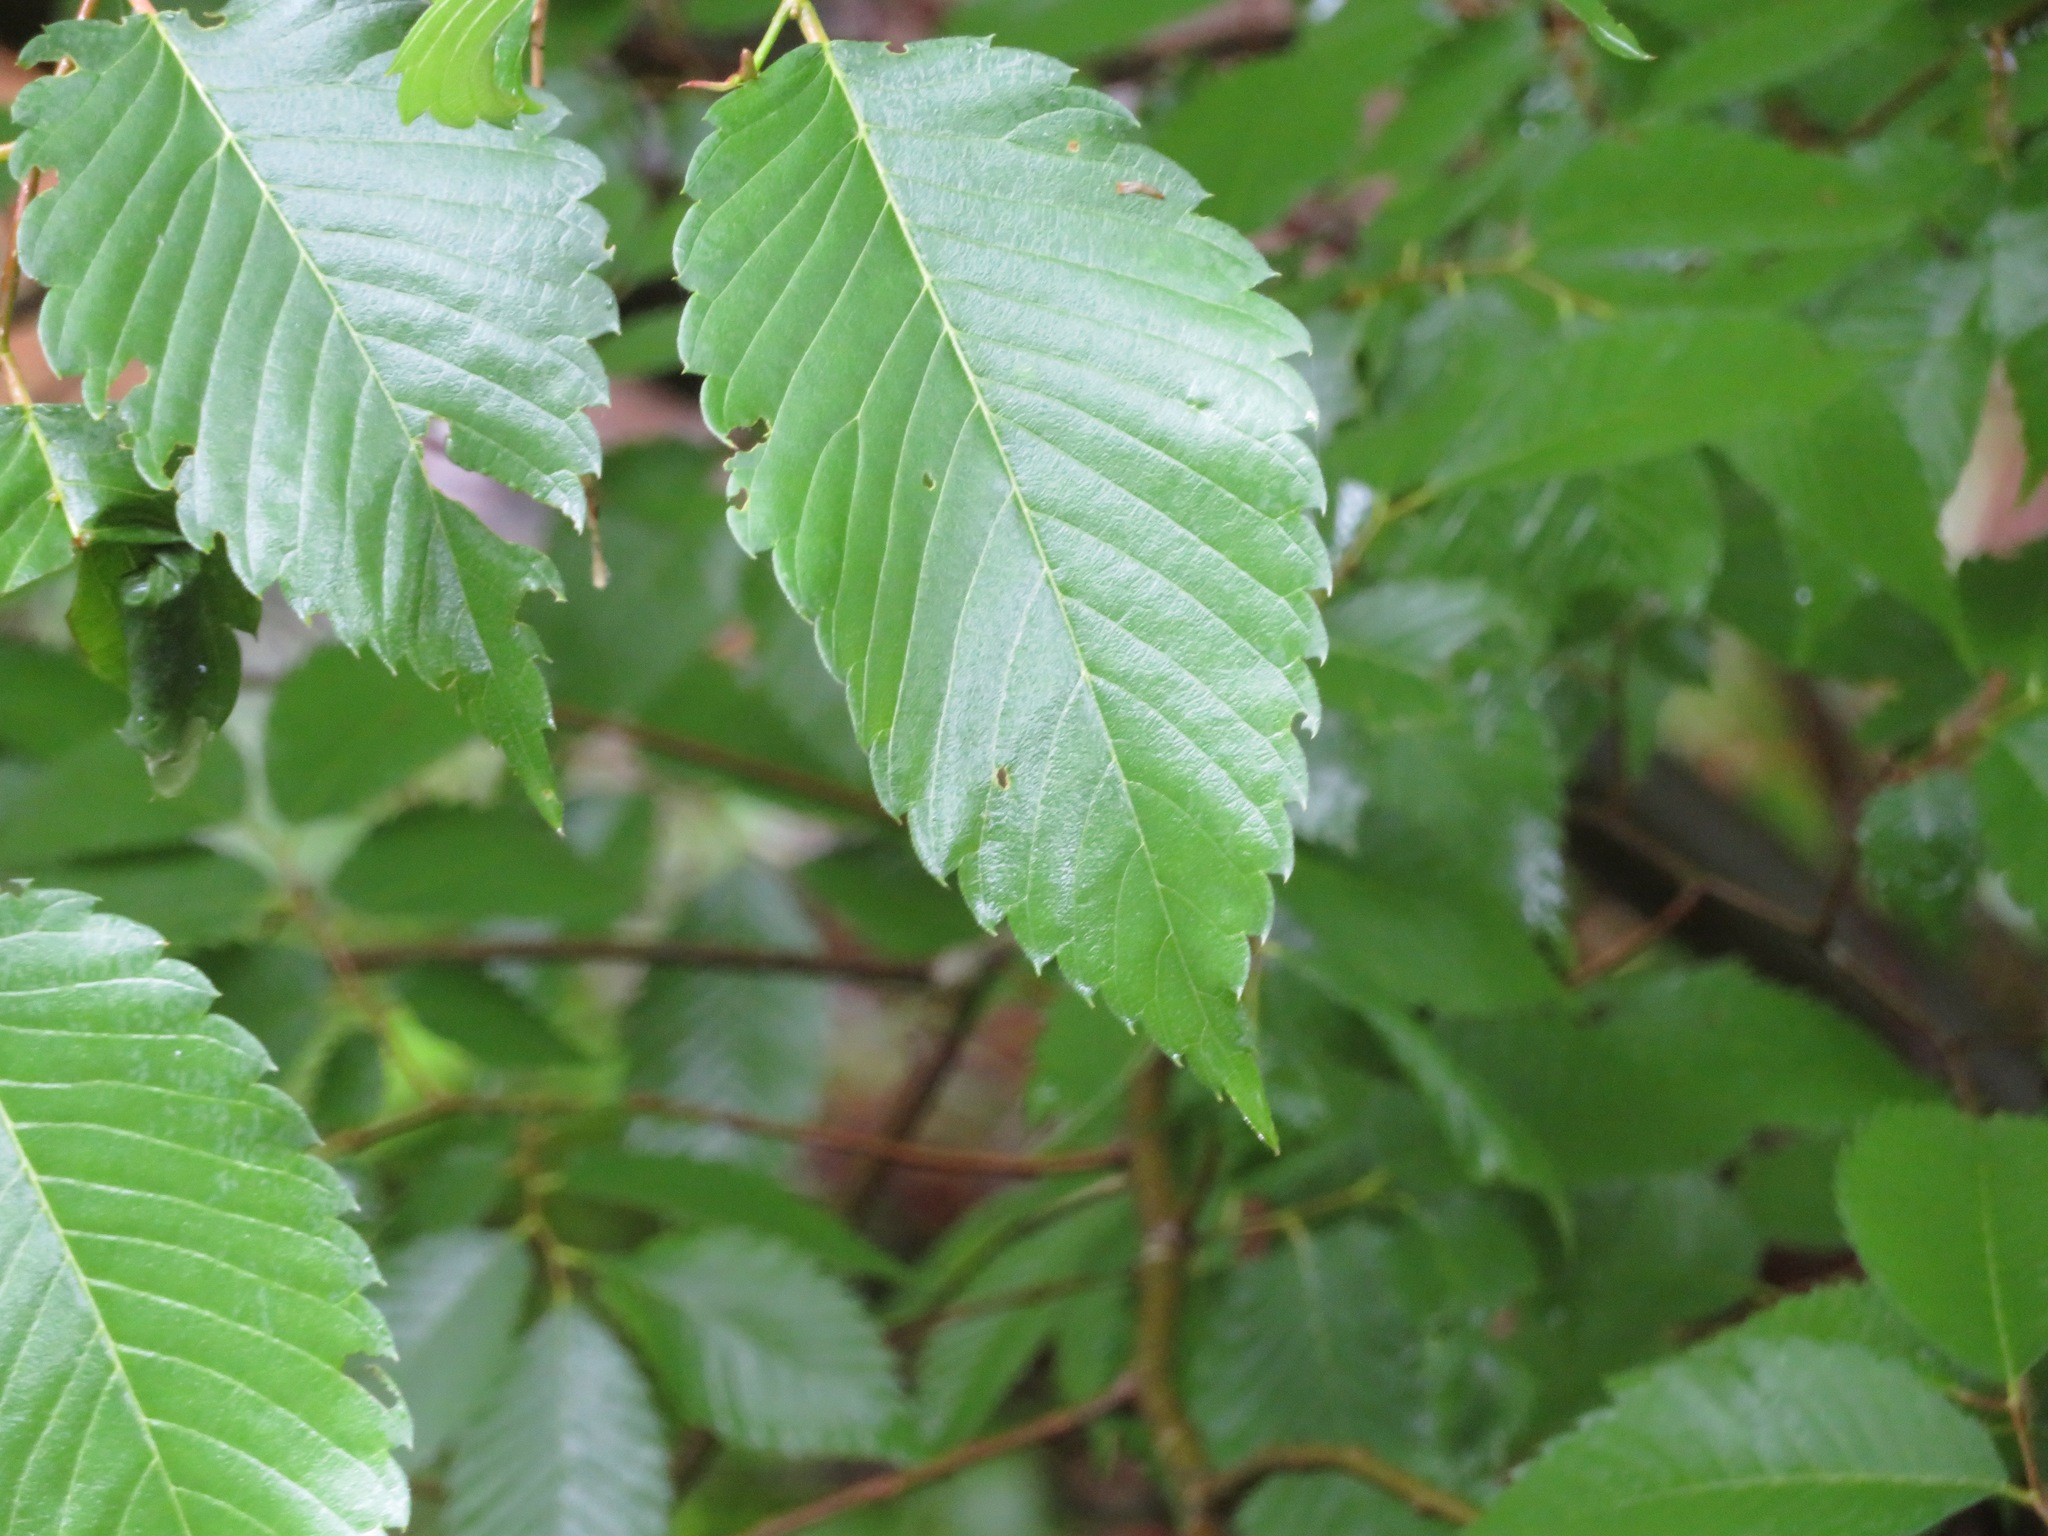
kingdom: Plantae
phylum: Tracheophyta
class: Magnoliopsida
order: Rosales
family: Ulmaceae
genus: Zelkova
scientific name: Zelkova serrata
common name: Japanese zelkova
